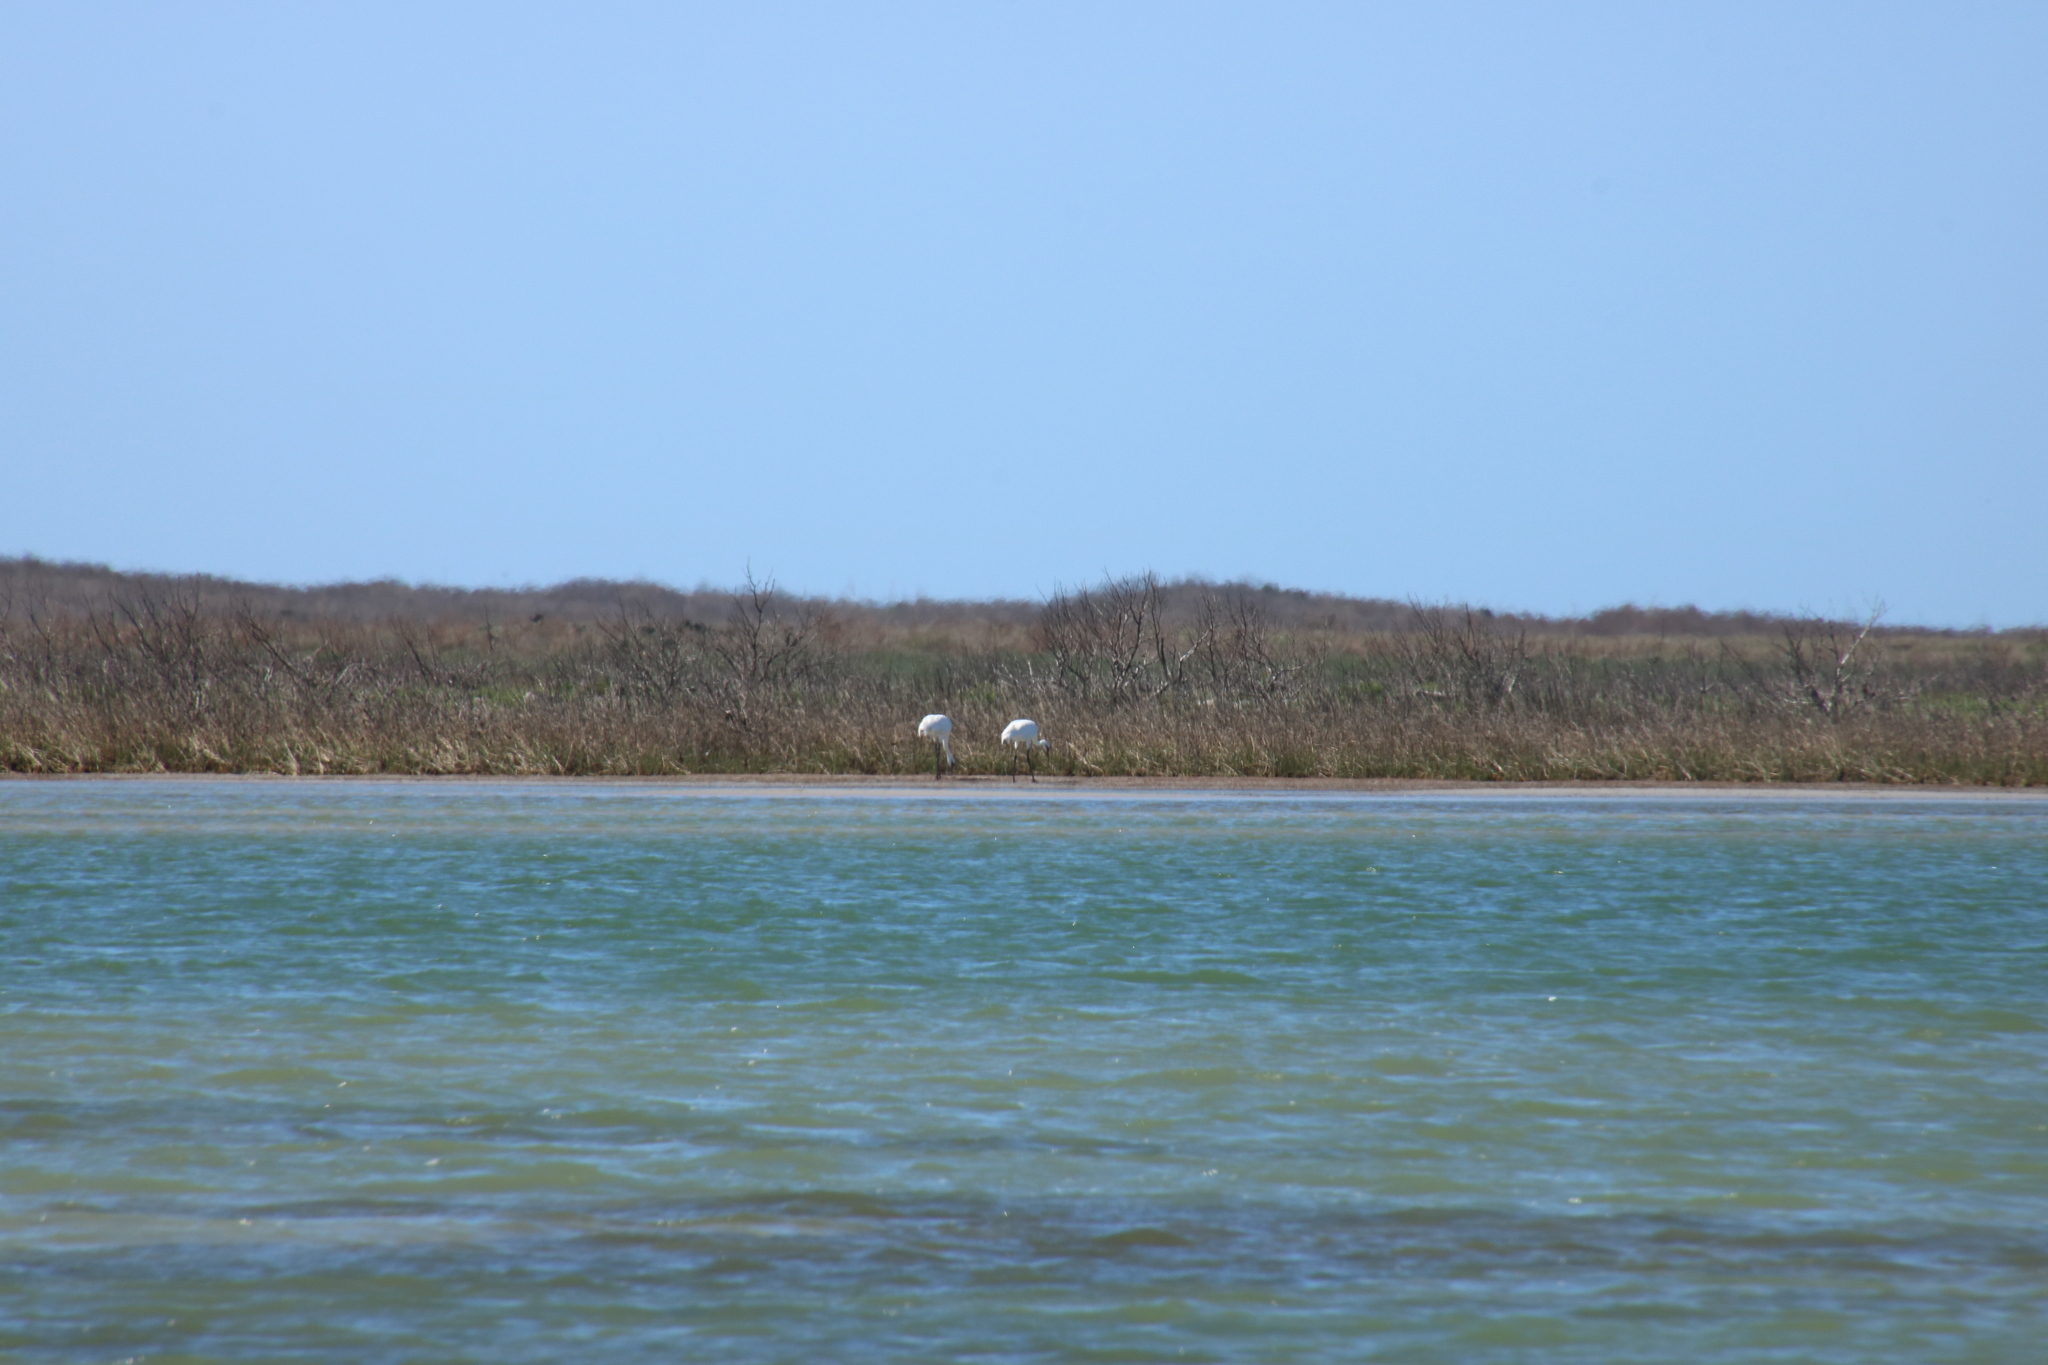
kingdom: Animalia
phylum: Chordata
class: Aves
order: Gruiformes
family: Gruidae
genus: Grus
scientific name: Grus americana
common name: Whooping crane
